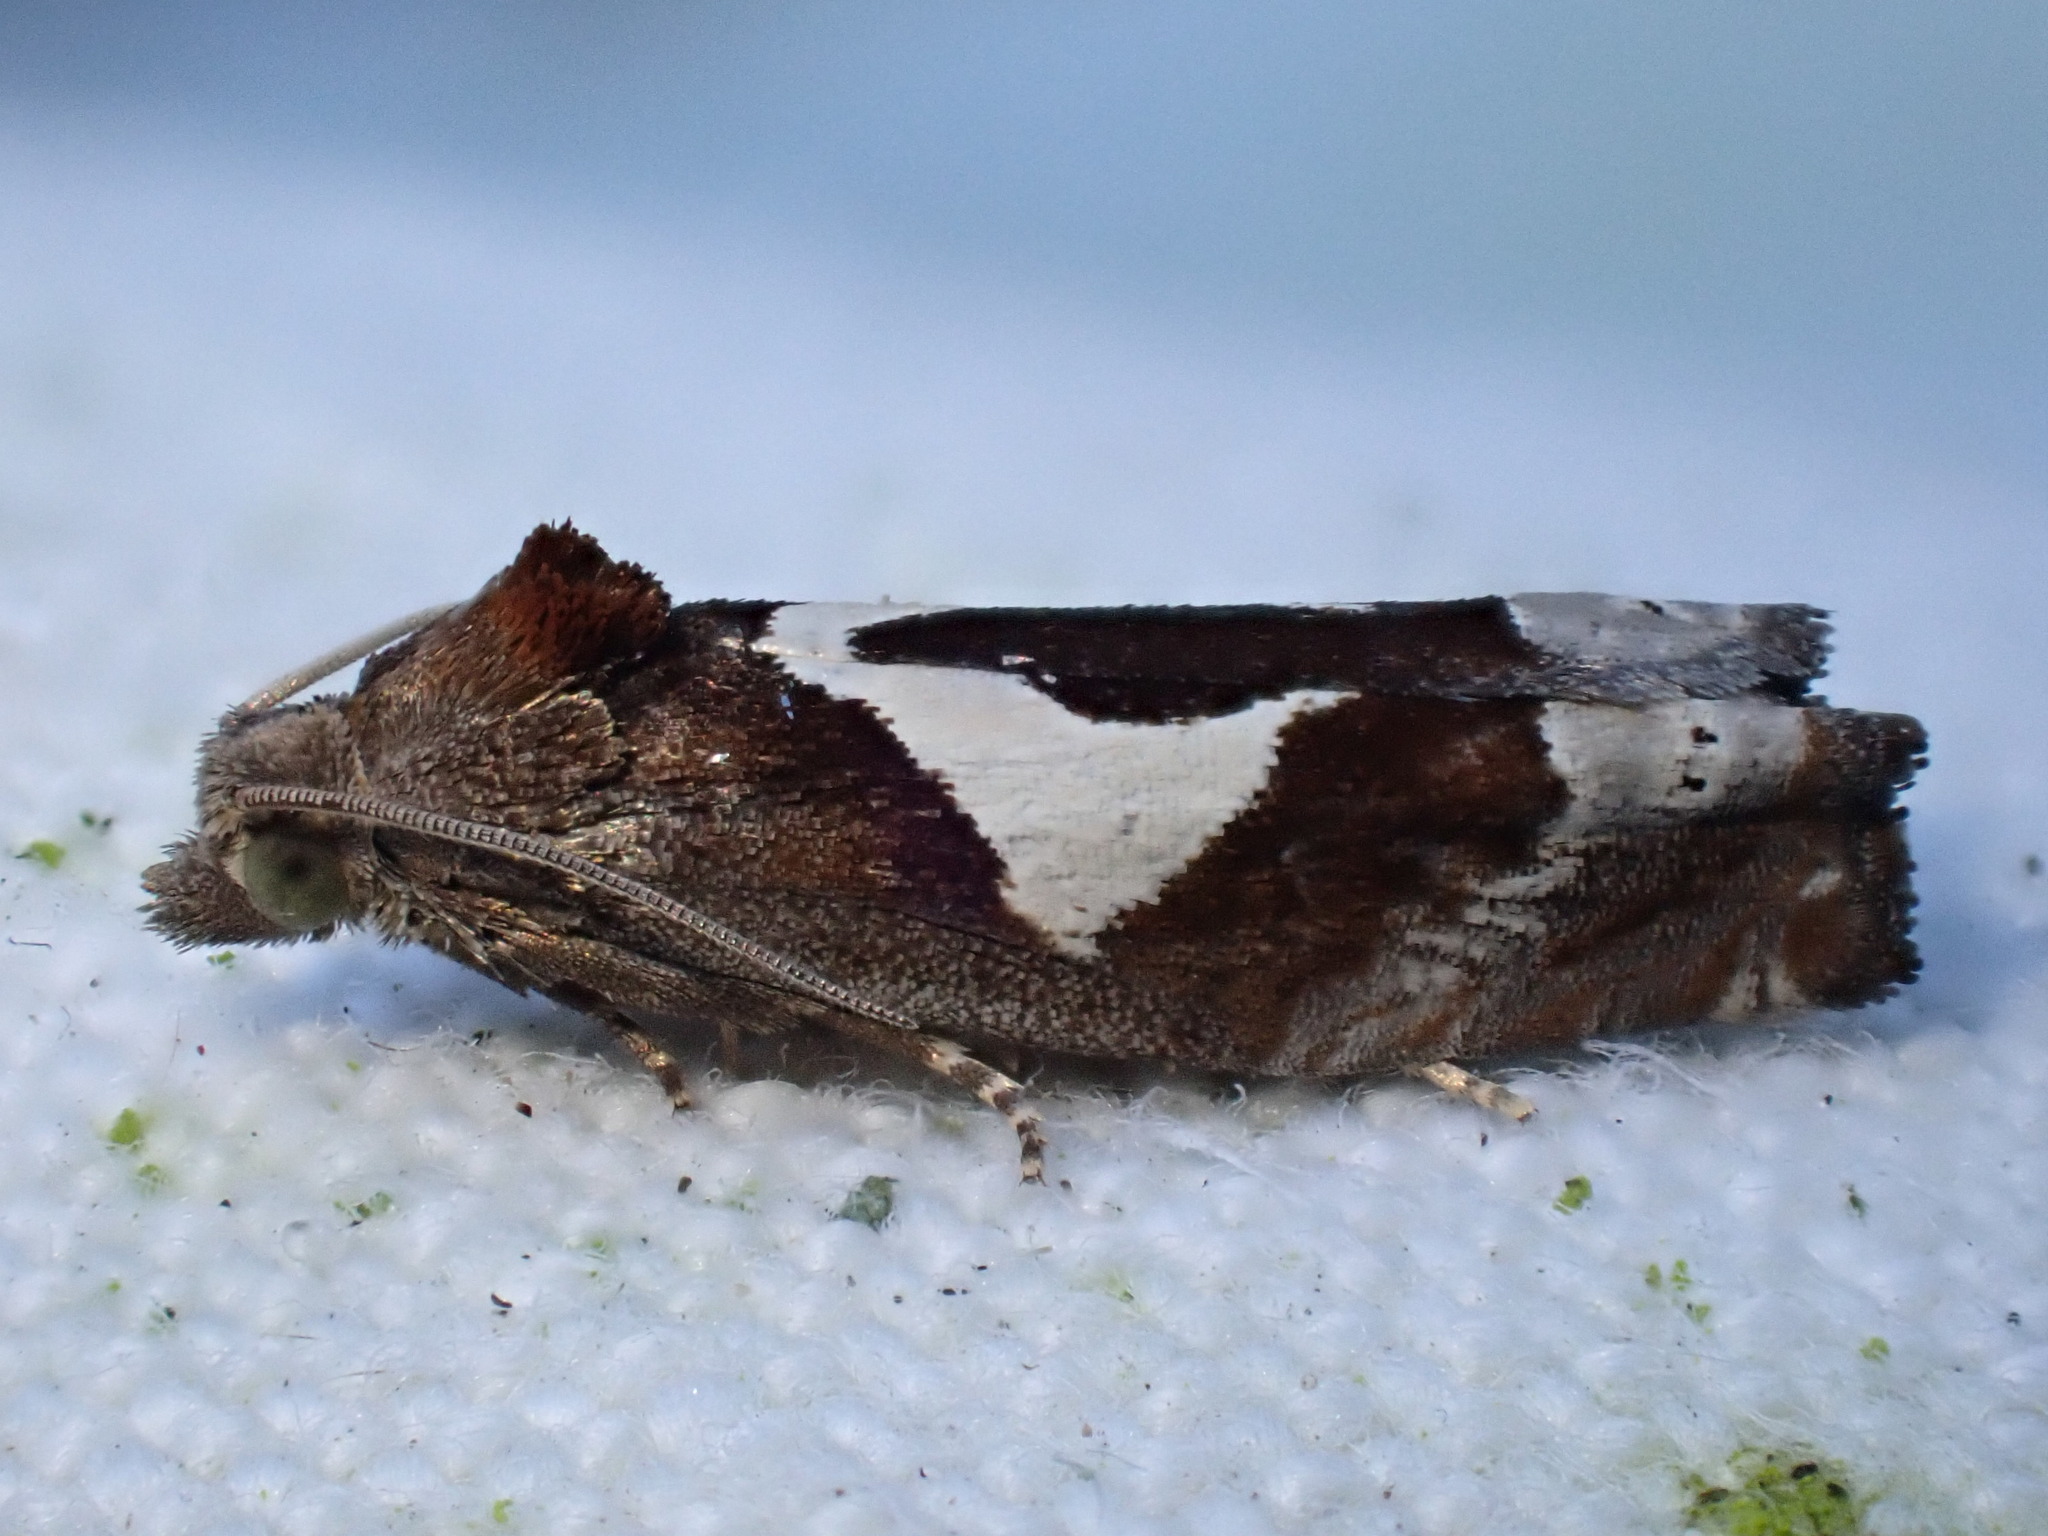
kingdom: Animalia
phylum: Arthropoda
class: Insecta
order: Lepidoptera
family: Tortricidae
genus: Epiblema
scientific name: Epiblema foenella
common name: White-foot bell
